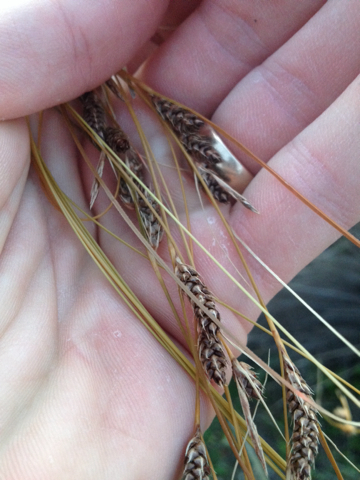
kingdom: Plantae
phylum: Tracheophyta
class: Liliopsida
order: Poales
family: Cyperaceae
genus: Carex
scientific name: Carex testacea
